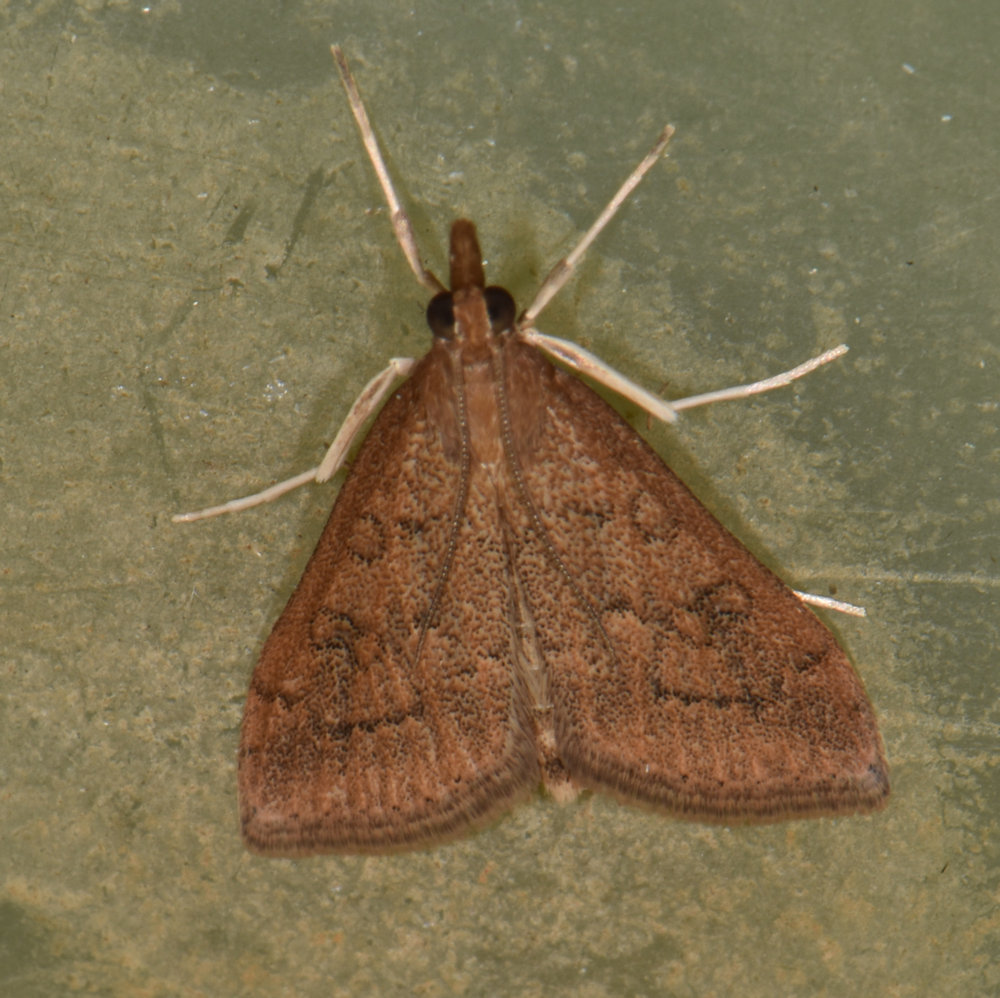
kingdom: Animalia
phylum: Arthropoda
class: Insecta
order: Lepidoptera
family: Crambidae
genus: Udea
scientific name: Udea rubigalis
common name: Celery leaftier moth
